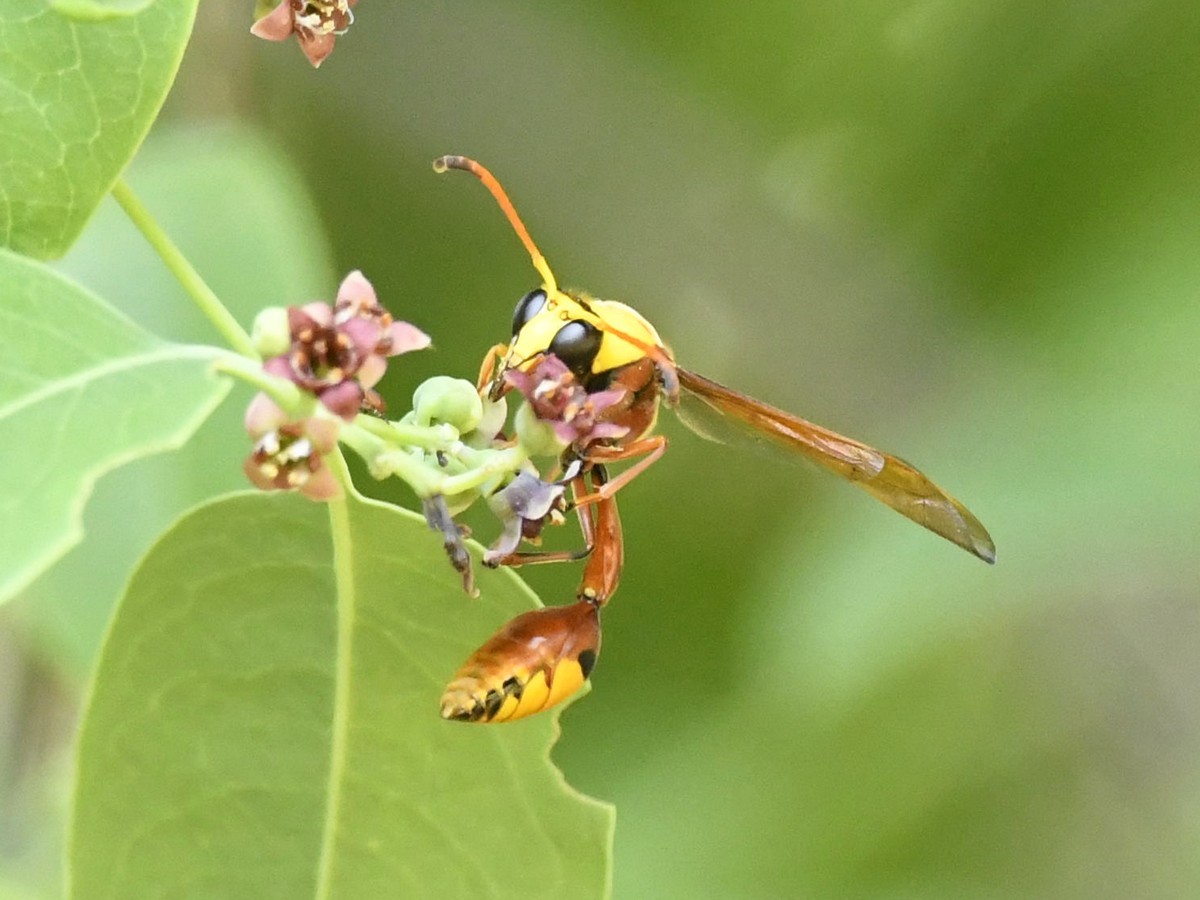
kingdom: Animalia
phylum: Arthropoda
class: Insecta
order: Hymenoptera
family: Eumenidae
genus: Delta
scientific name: Delta pyriforme
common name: Wasp
